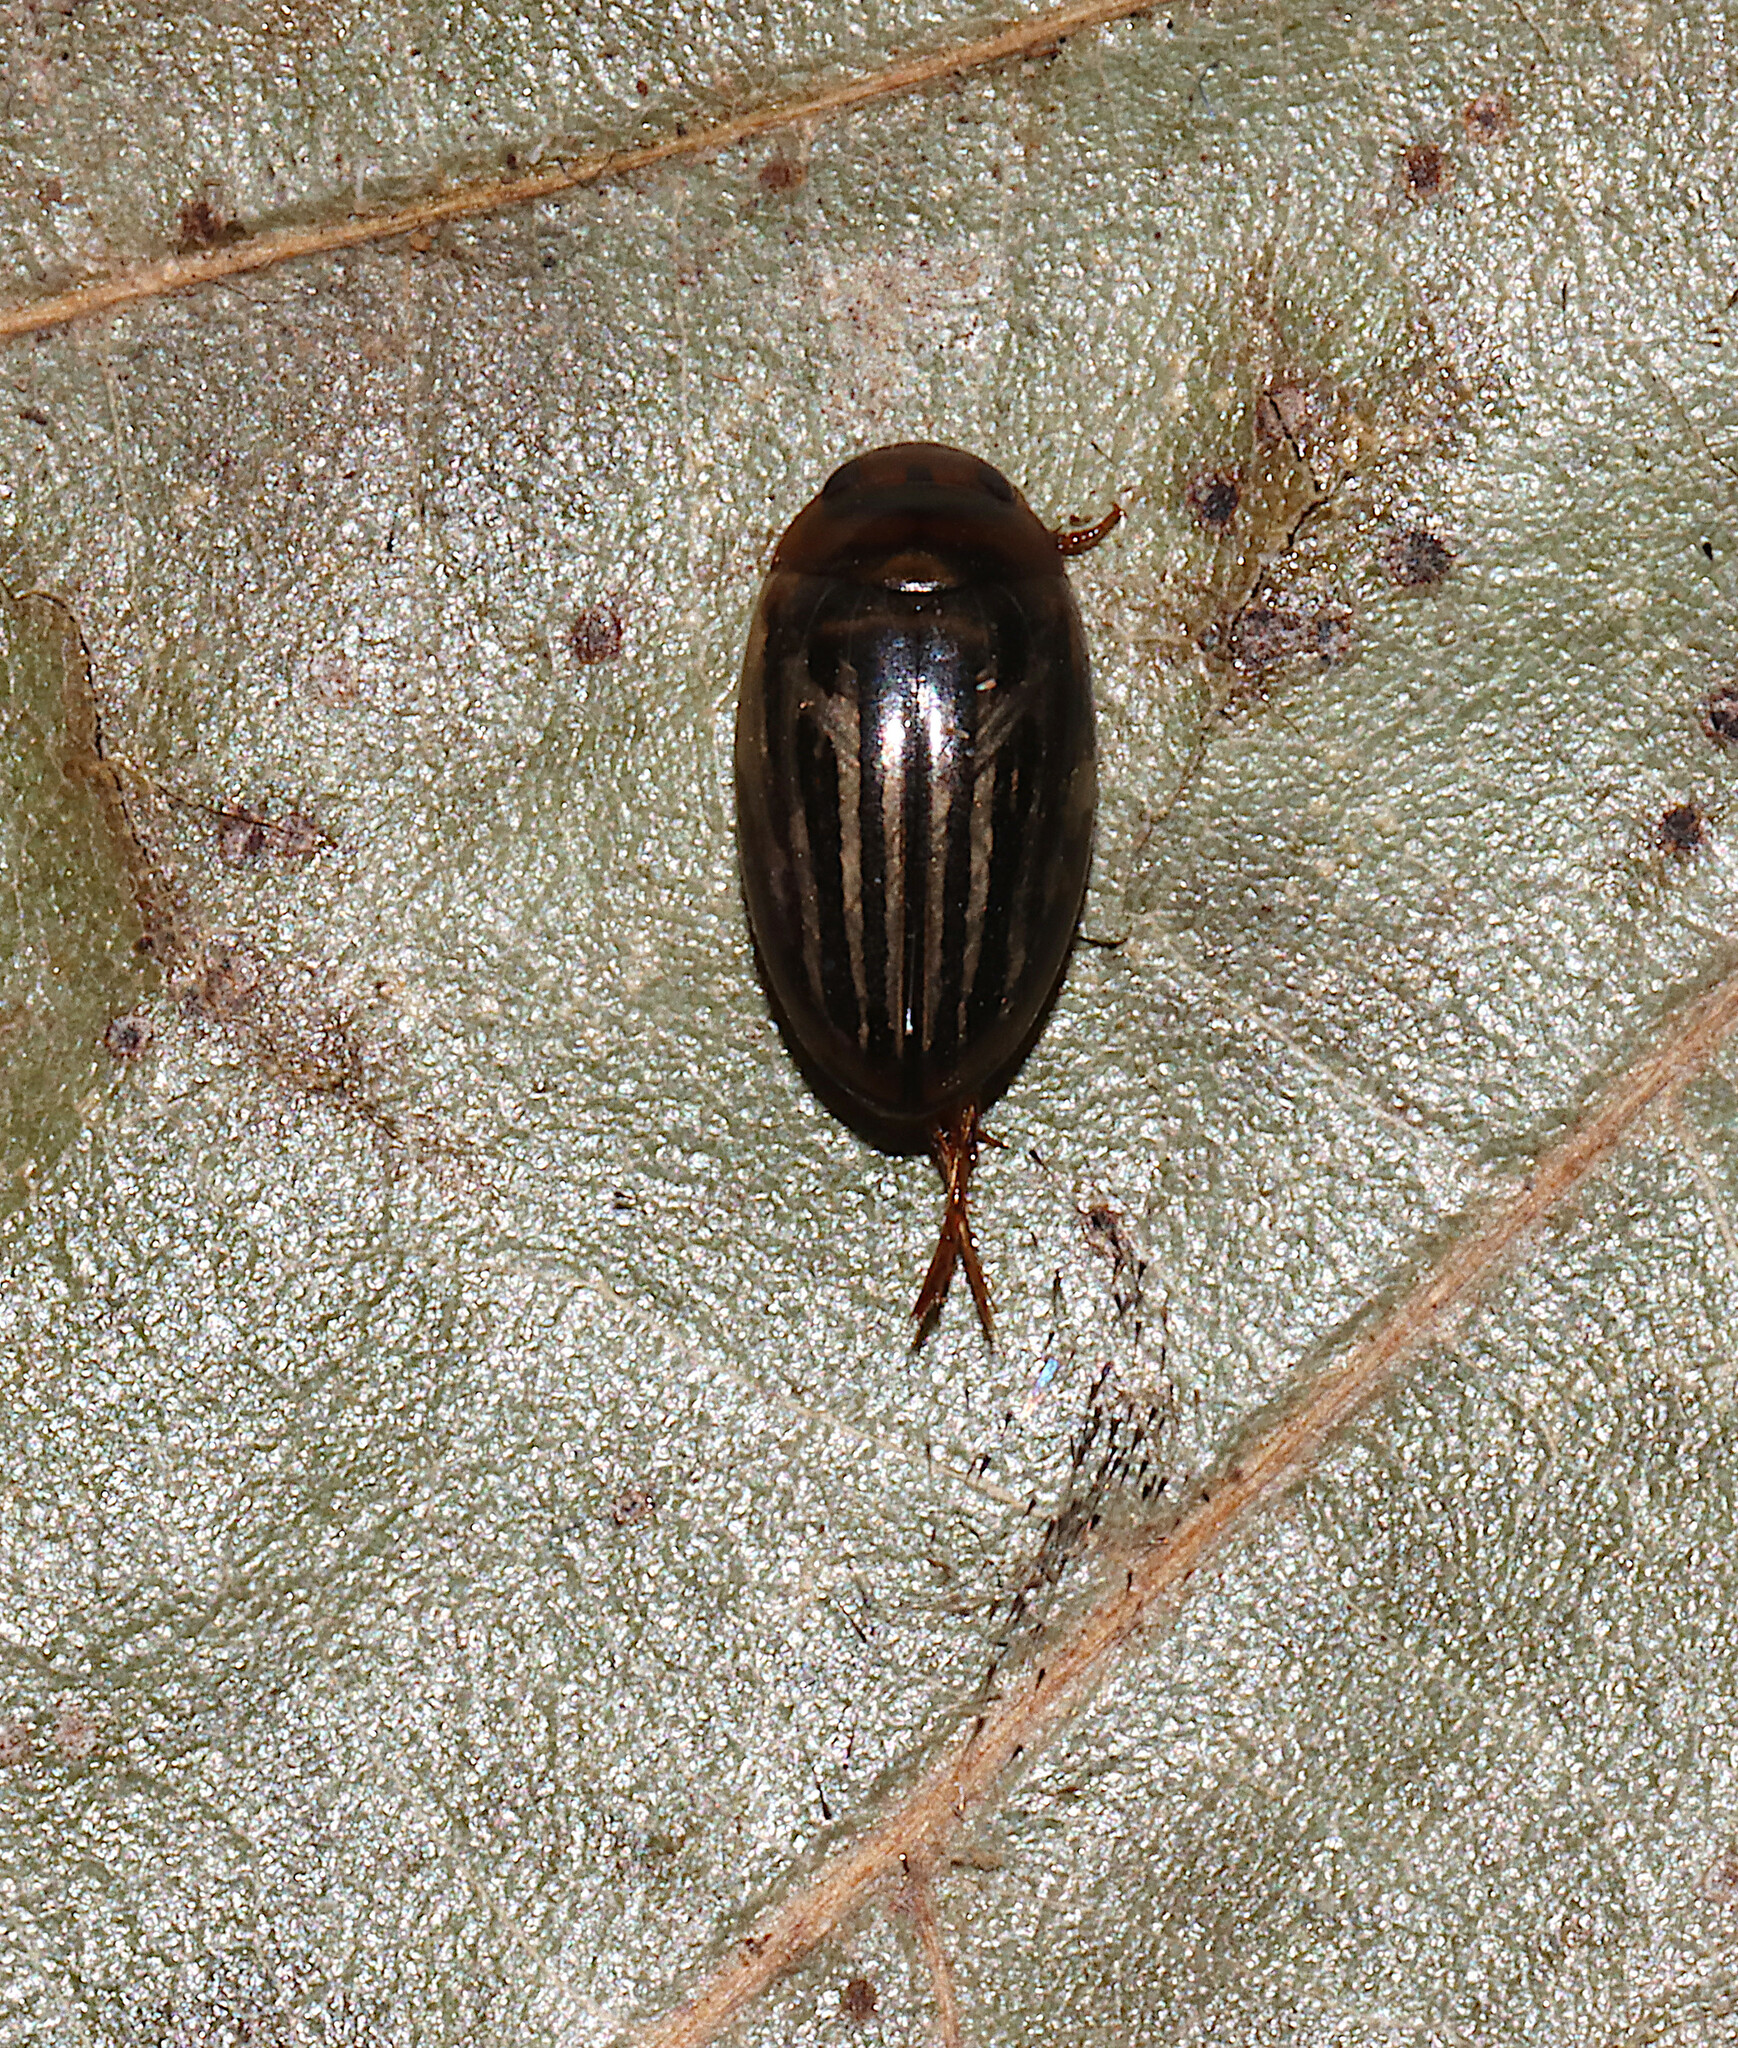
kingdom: Animalia
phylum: Arthropoda
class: Insecta
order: Coleoptera
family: Dytiscidae
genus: Agabus
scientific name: Agabus disintegratus
